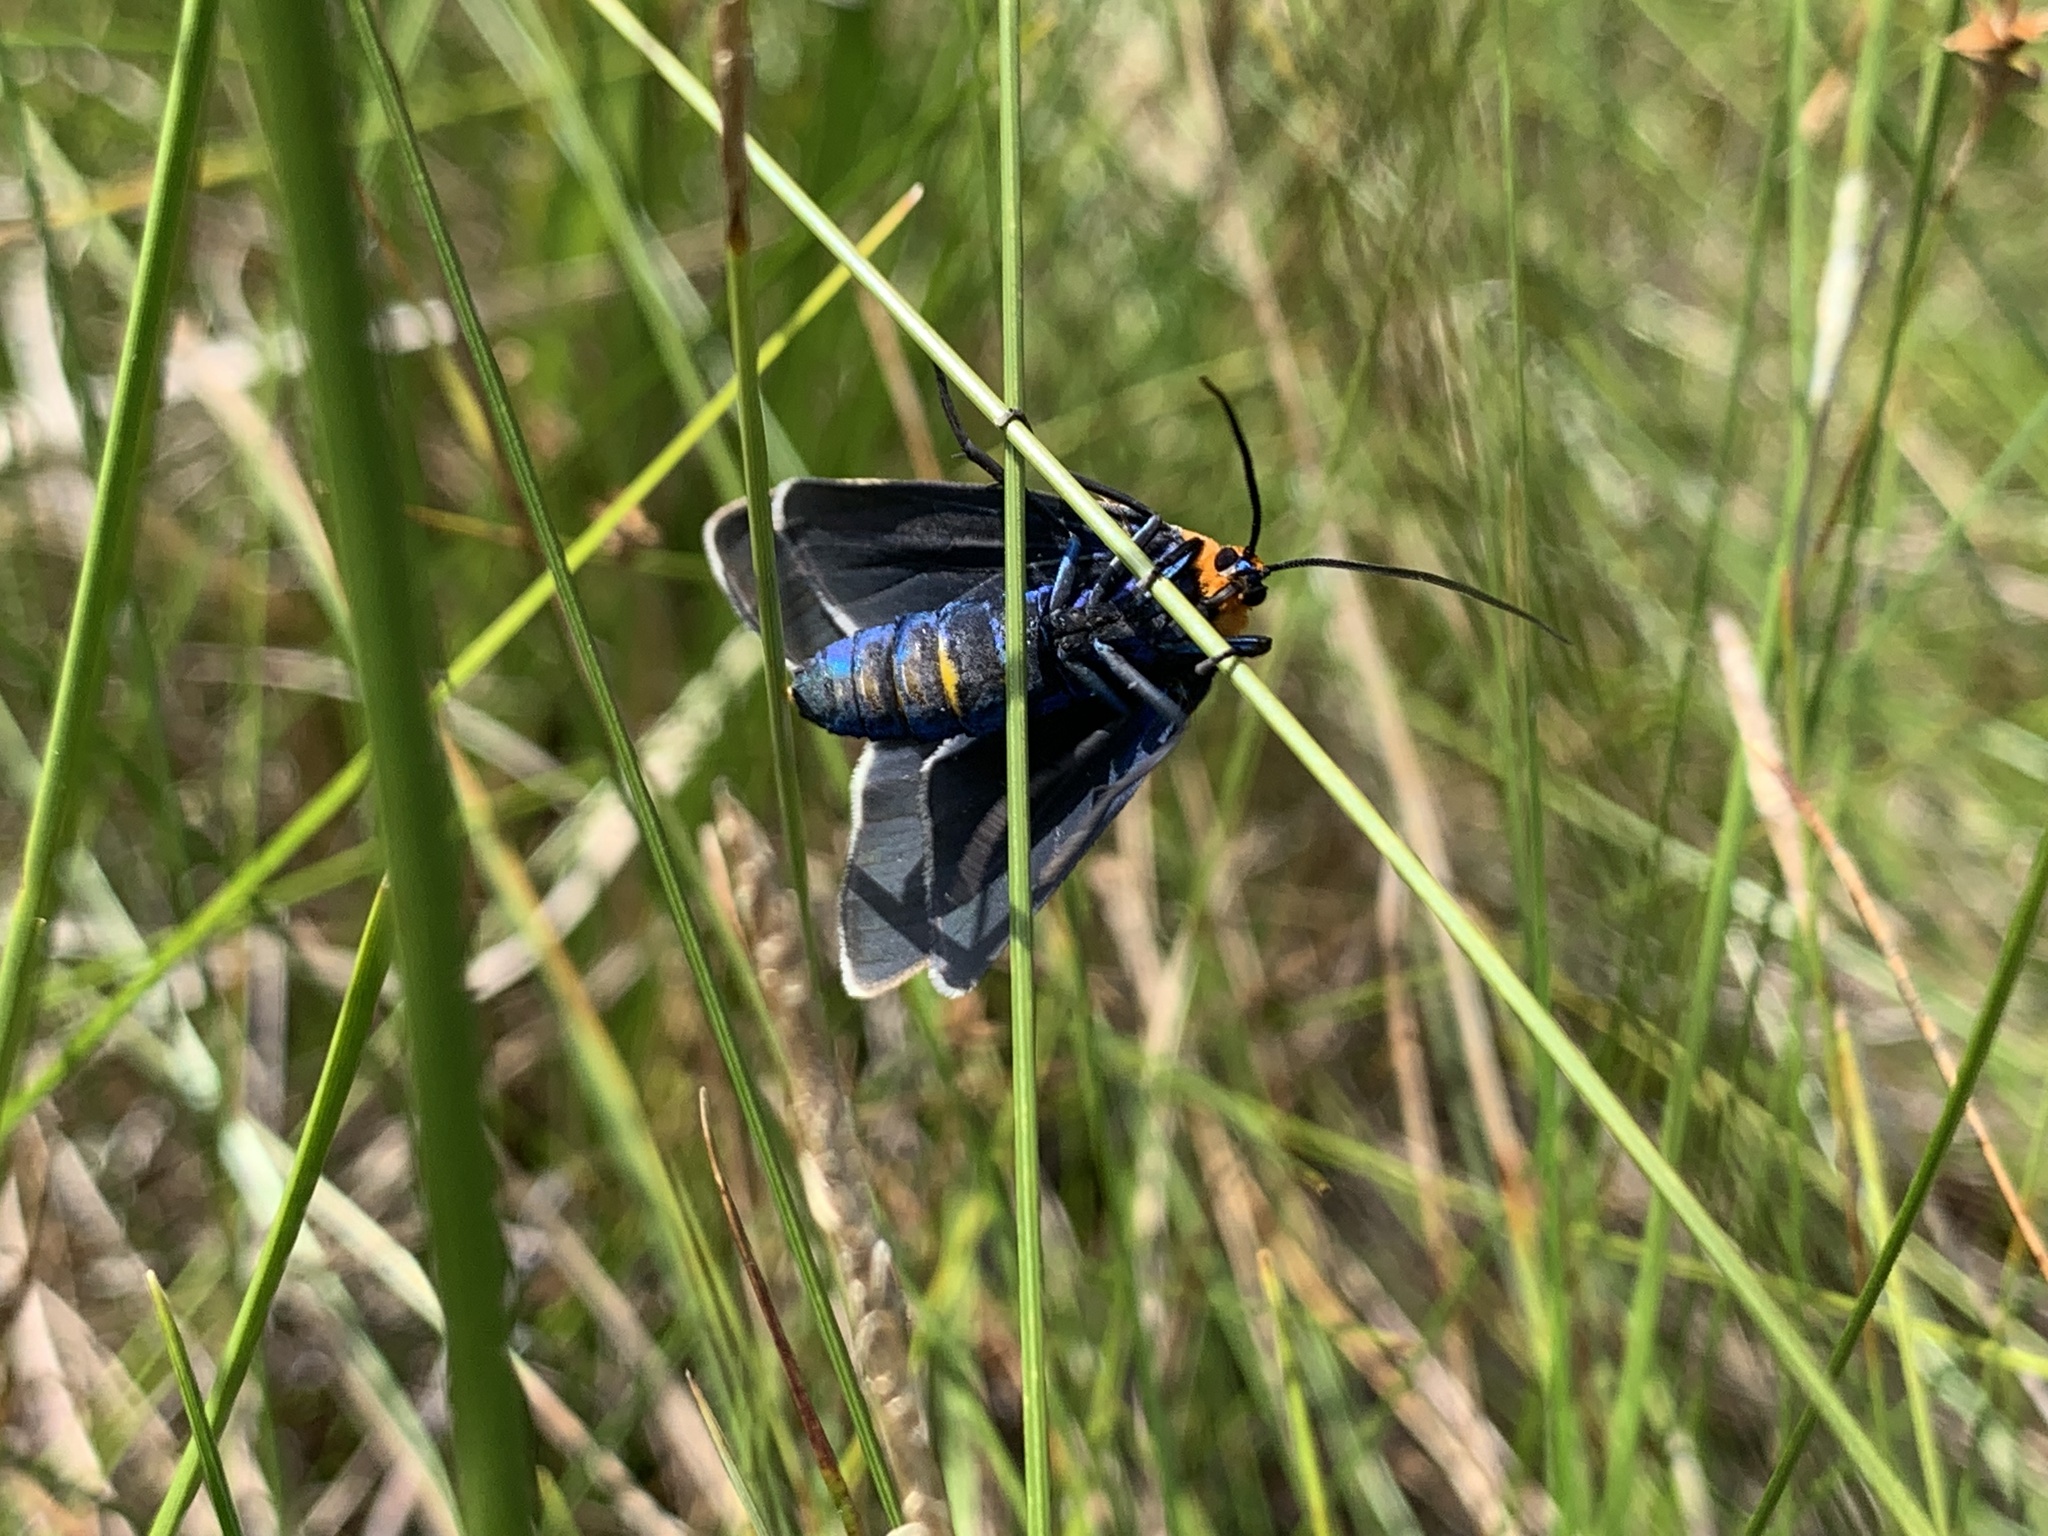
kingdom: Animalia
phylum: Arthropoda
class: Insecta
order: Lepidoptera
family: Erebidae
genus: Ctenucha
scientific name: Ctenucha virginica
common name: Virginia ctenucha moth
